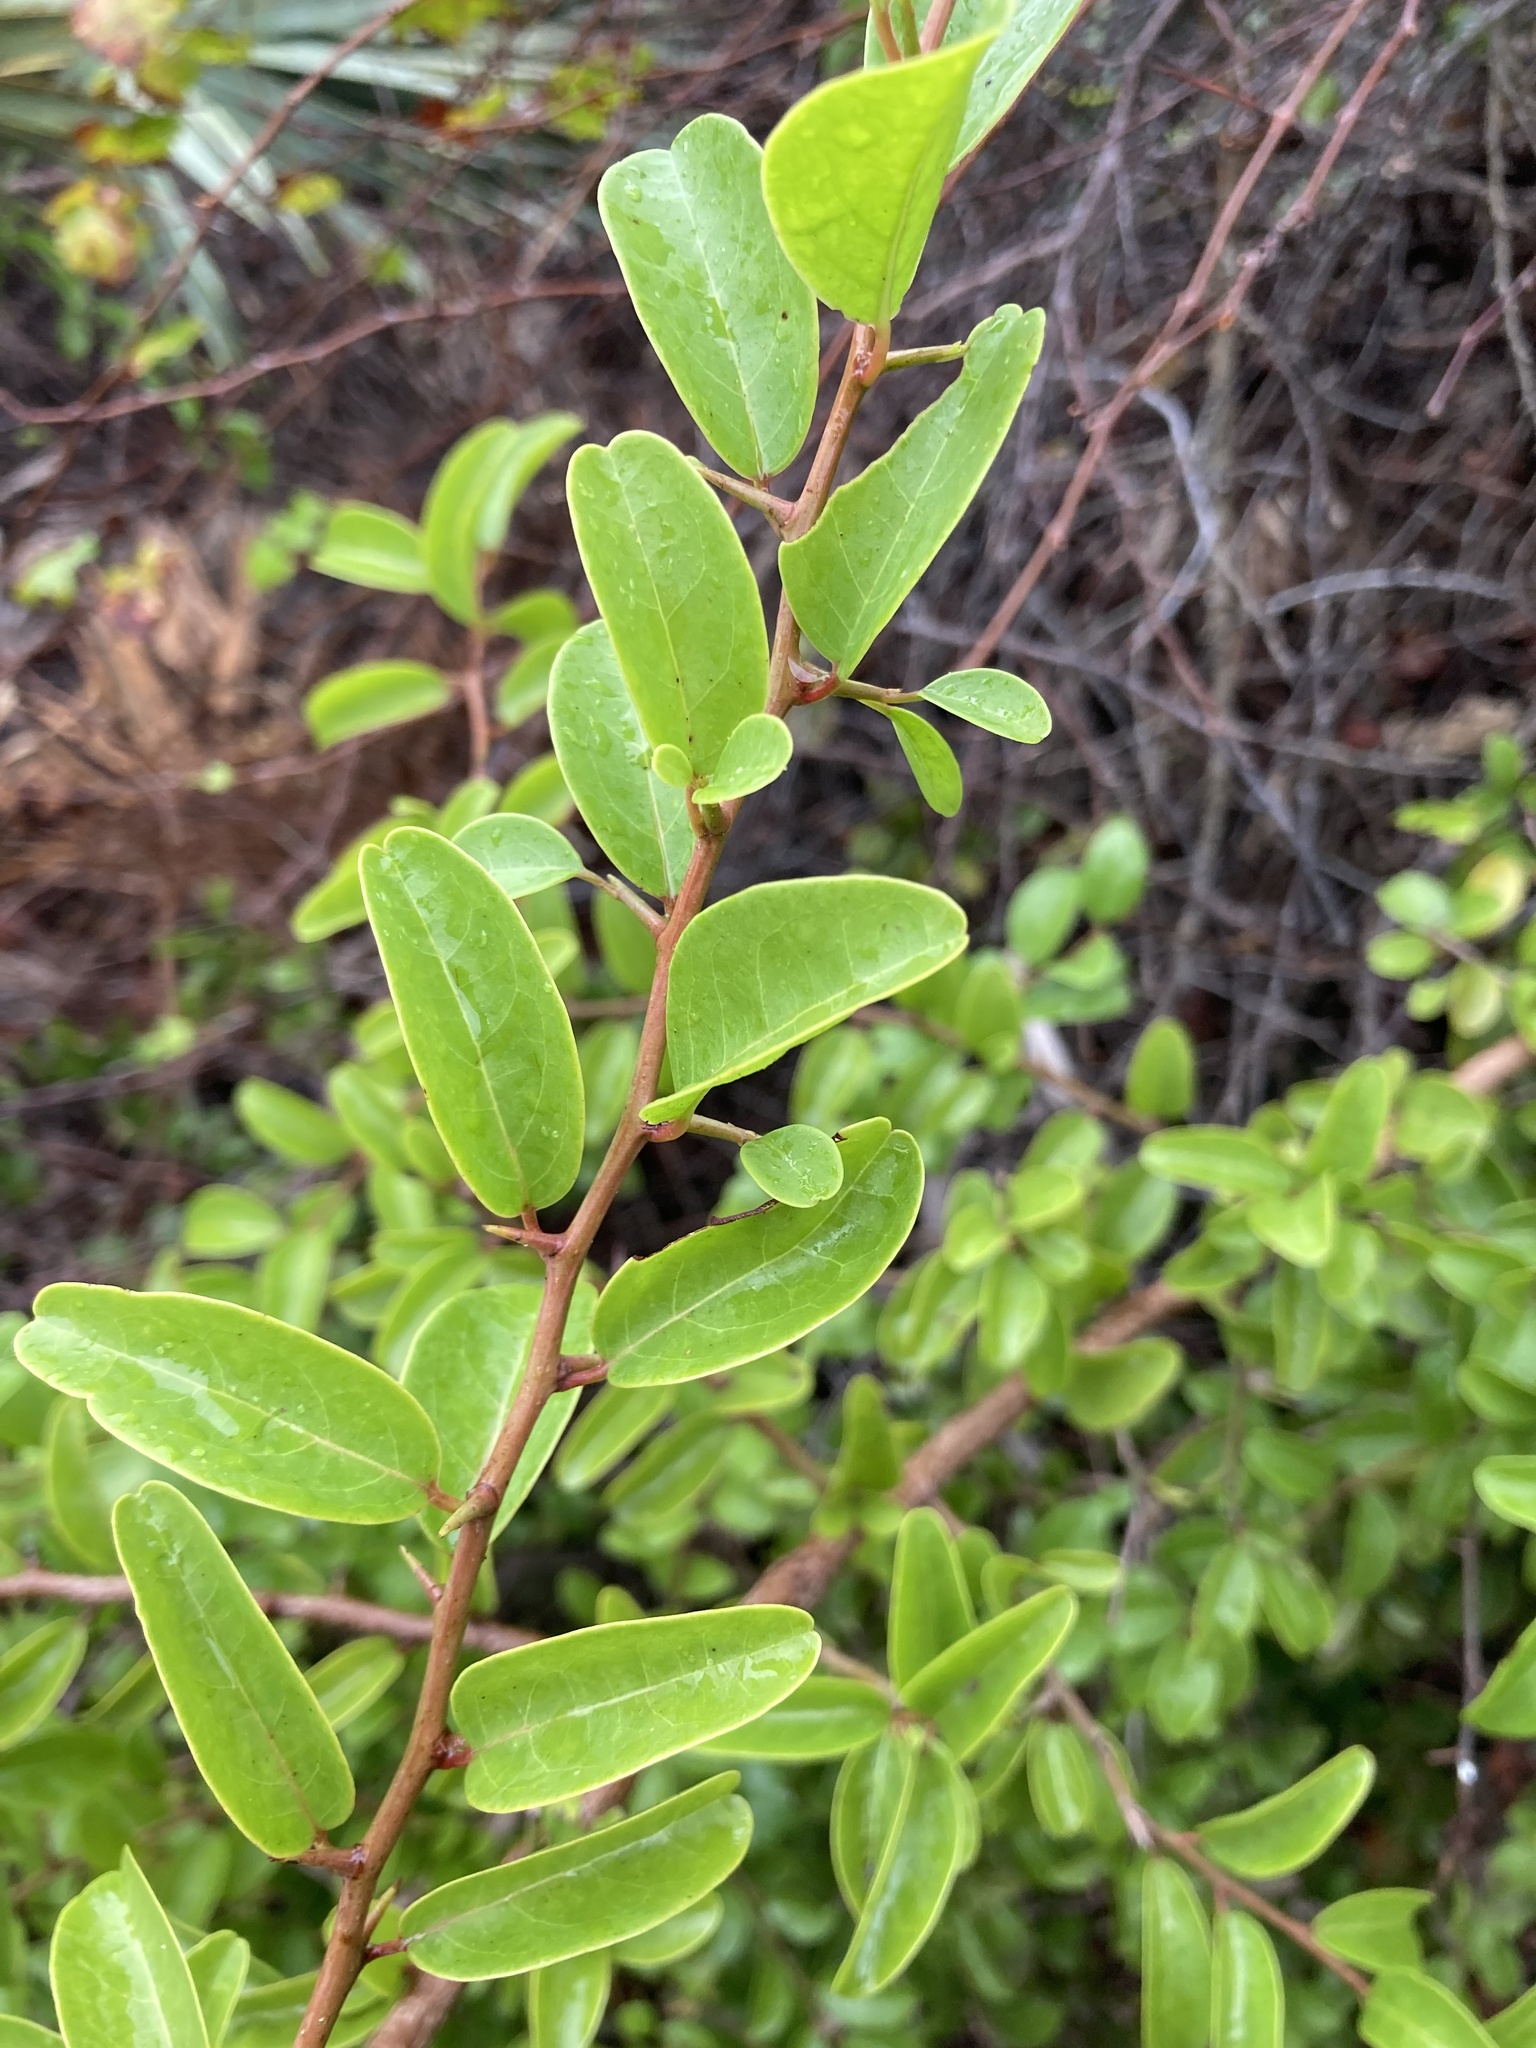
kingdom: Plantae
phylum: Tracheophyta
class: Magnoliopsida
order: Santalales
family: Ximeniaceae
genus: Ximenia
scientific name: Ximenia americana
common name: Tallowwood
